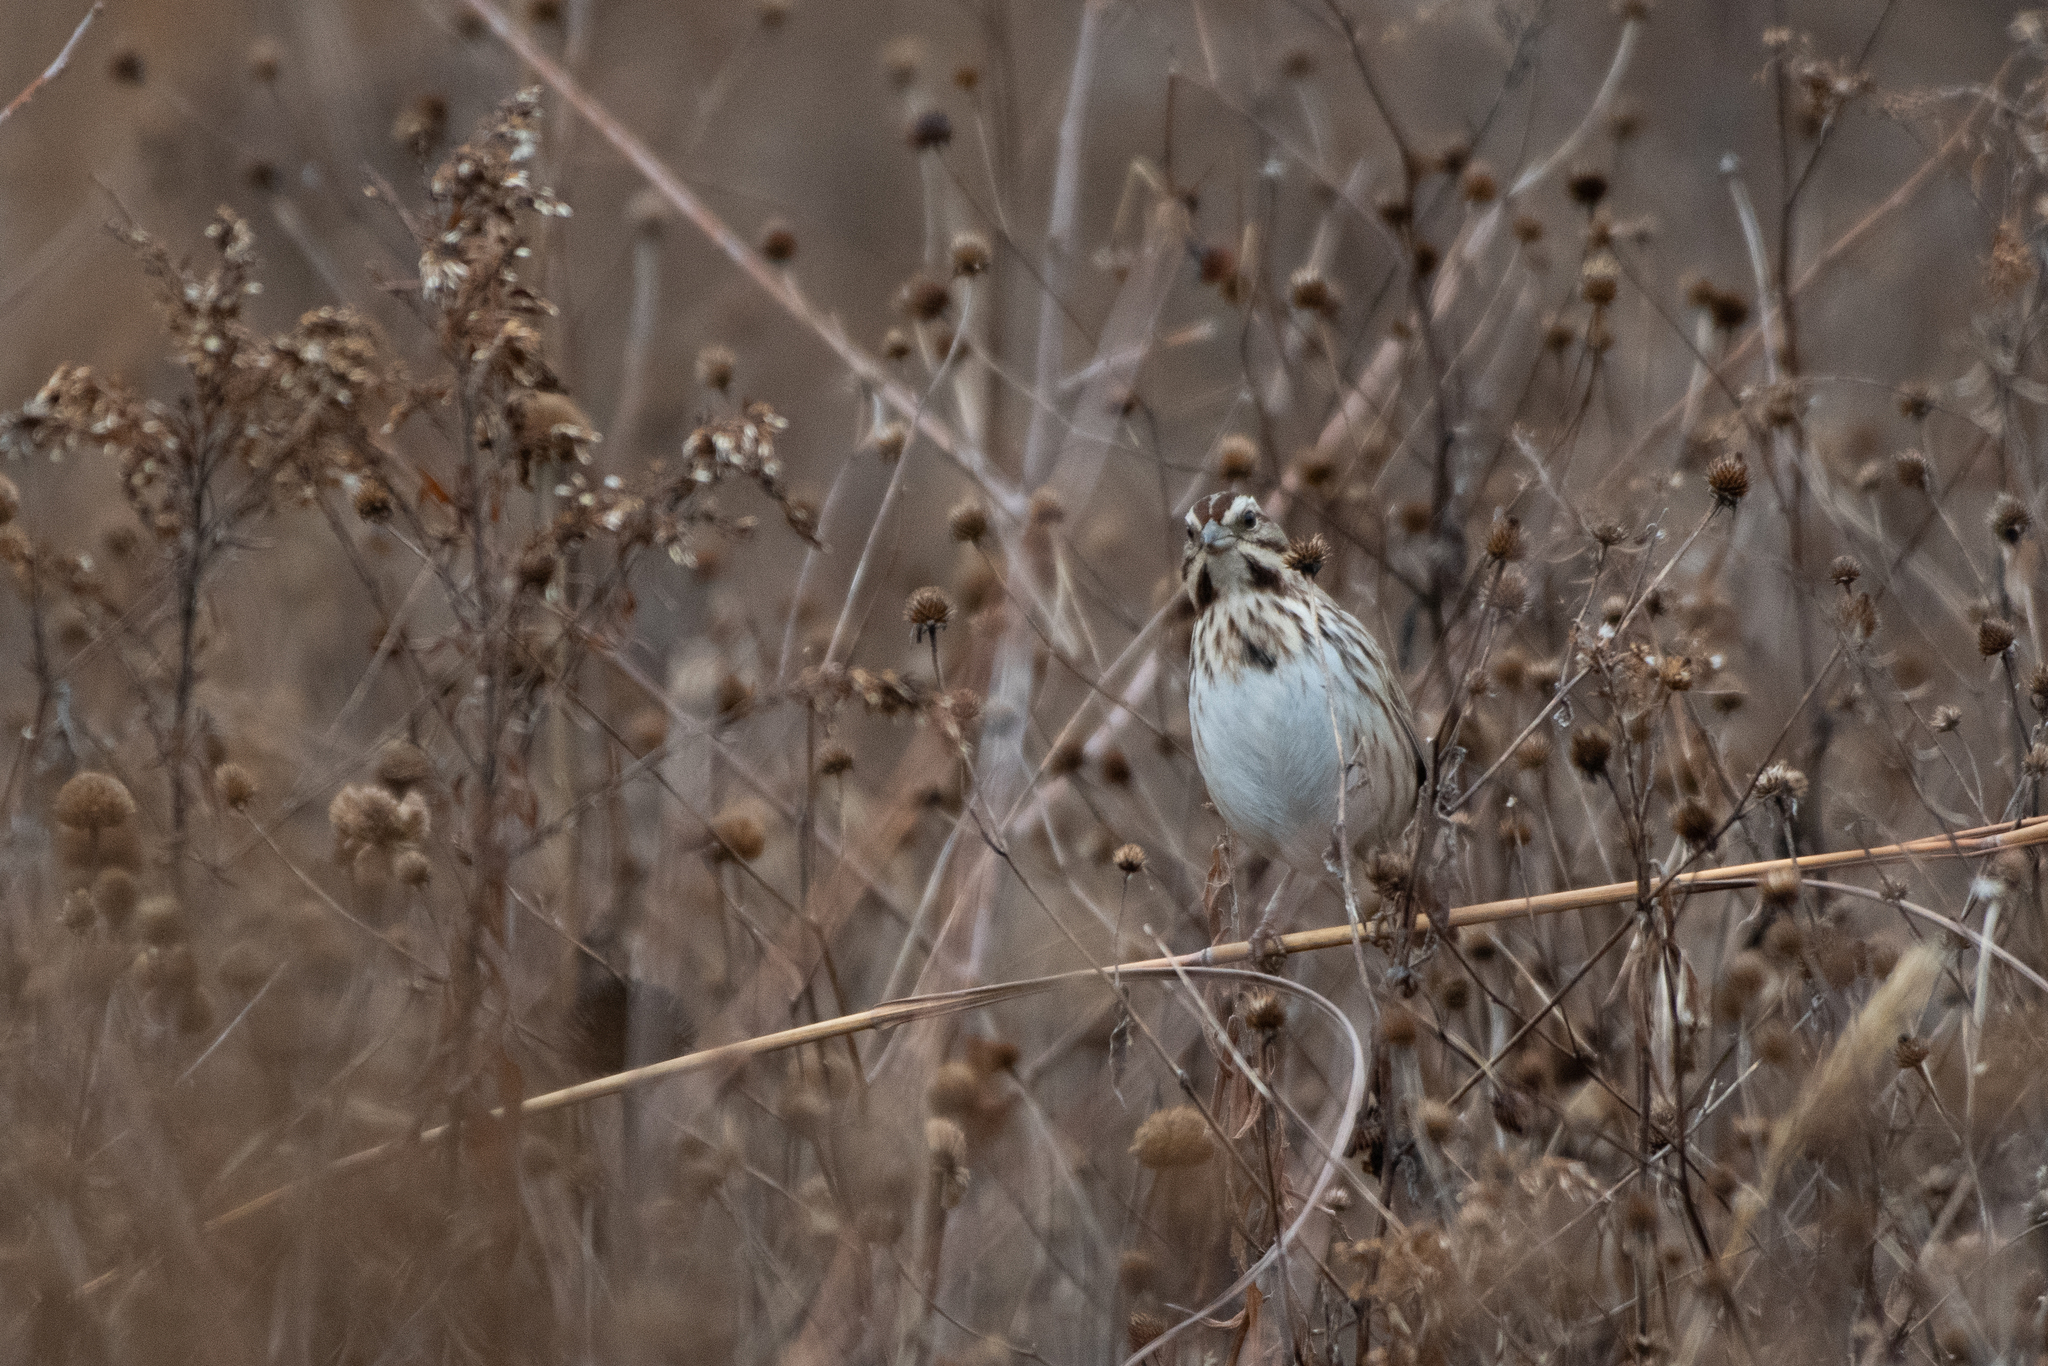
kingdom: Animalia
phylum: Chordata
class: Aves
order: Passeriformes
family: Passerellidae
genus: Melospiza
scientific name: Melospiza melodia
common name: Song sparrow
